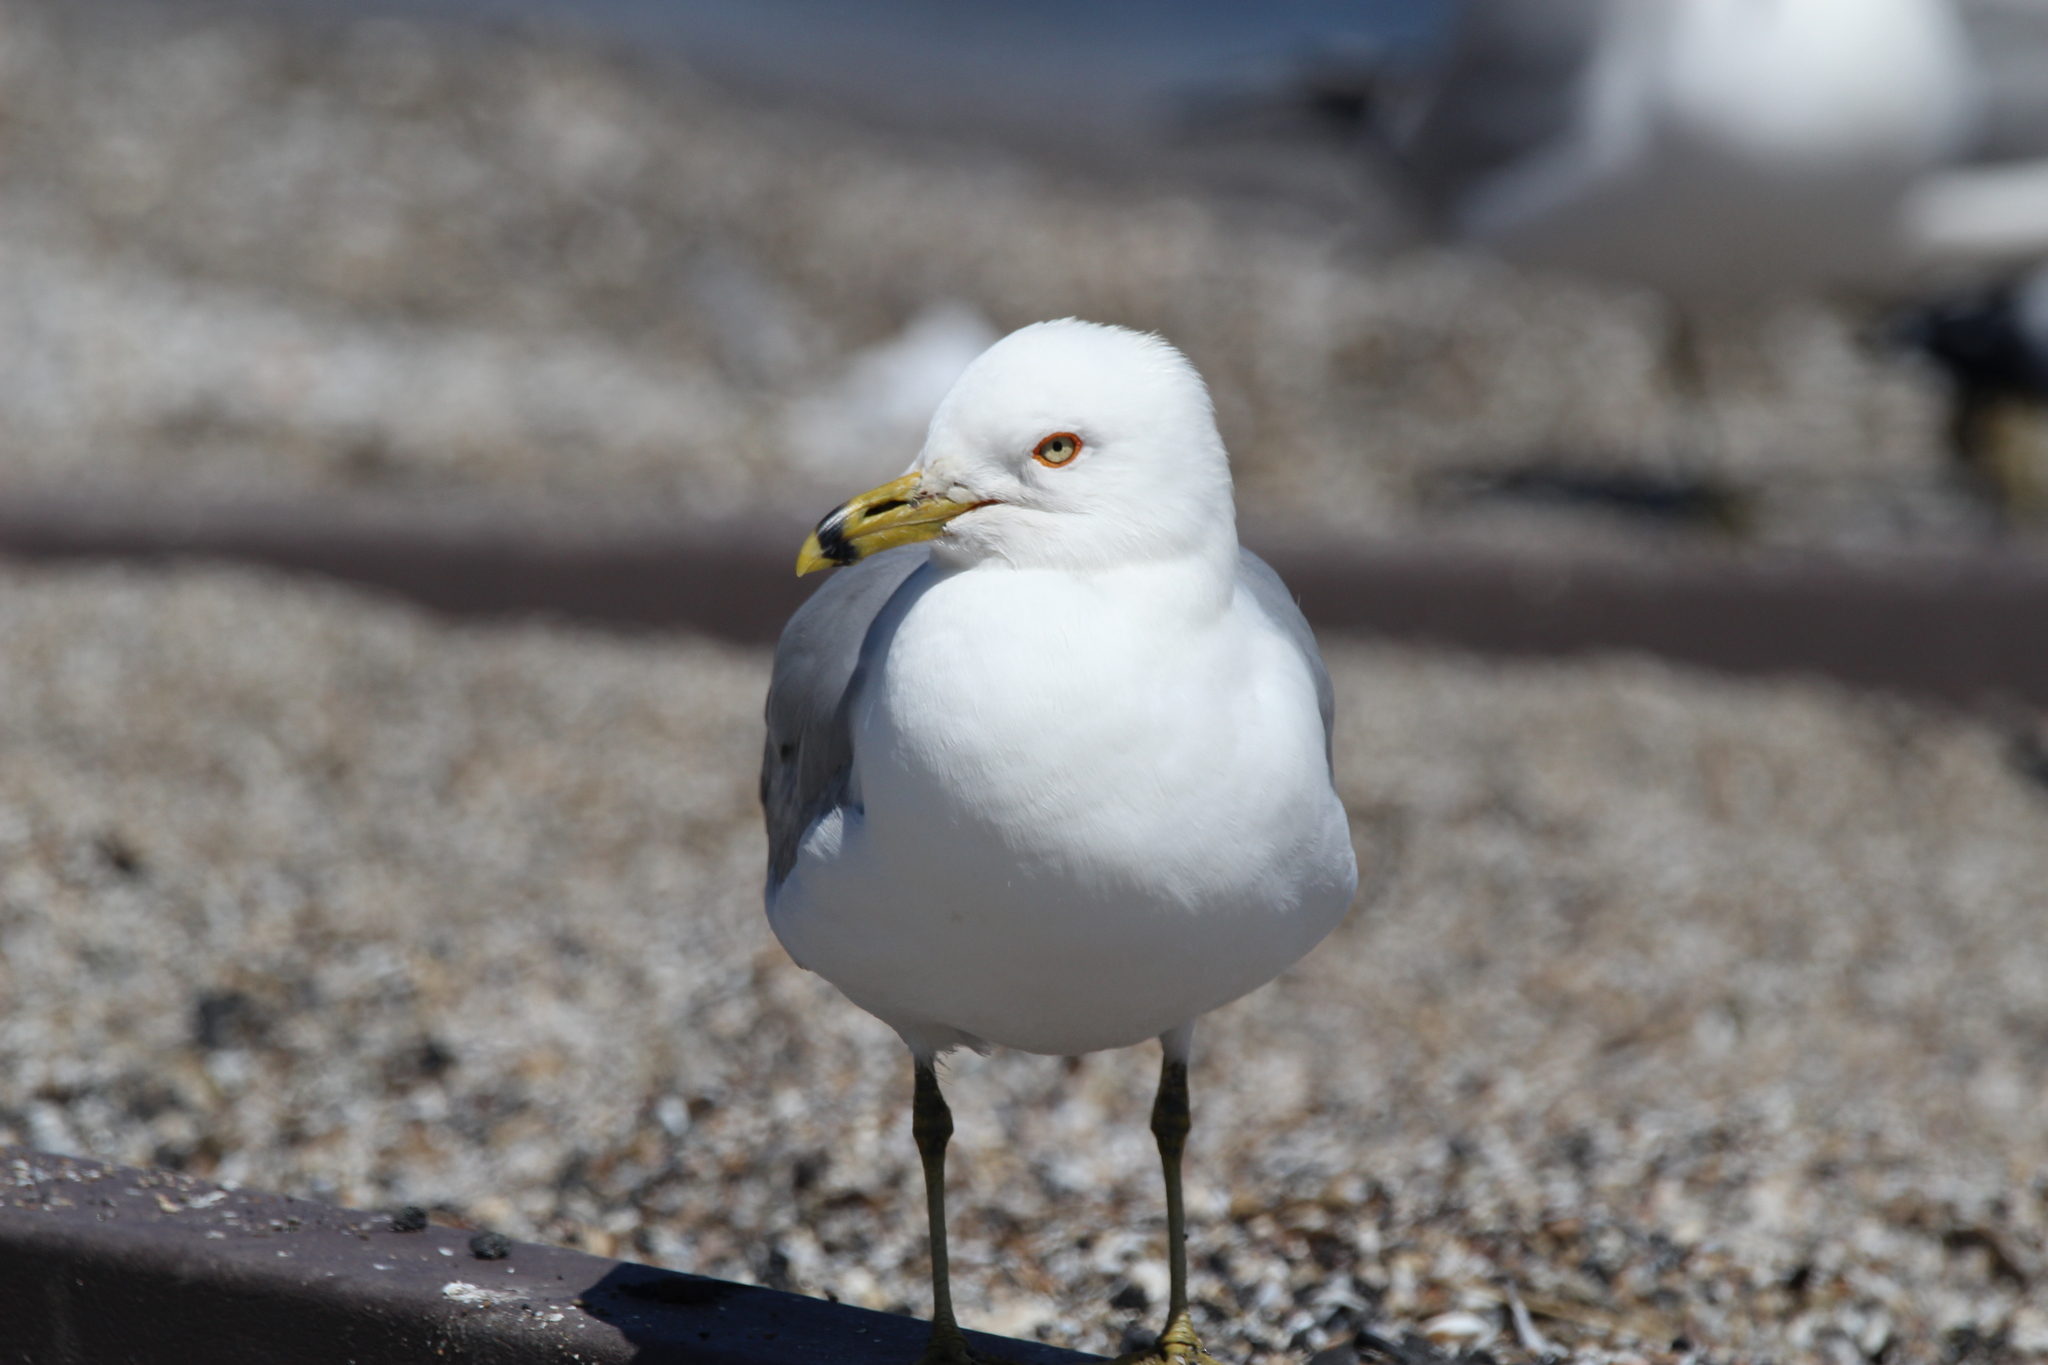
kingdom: Animalia
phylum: Chordata
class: Aves
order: Charadriiformes
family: Laridae
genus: Larus
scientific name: Larus delawarensis
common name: Ring-billed gull
